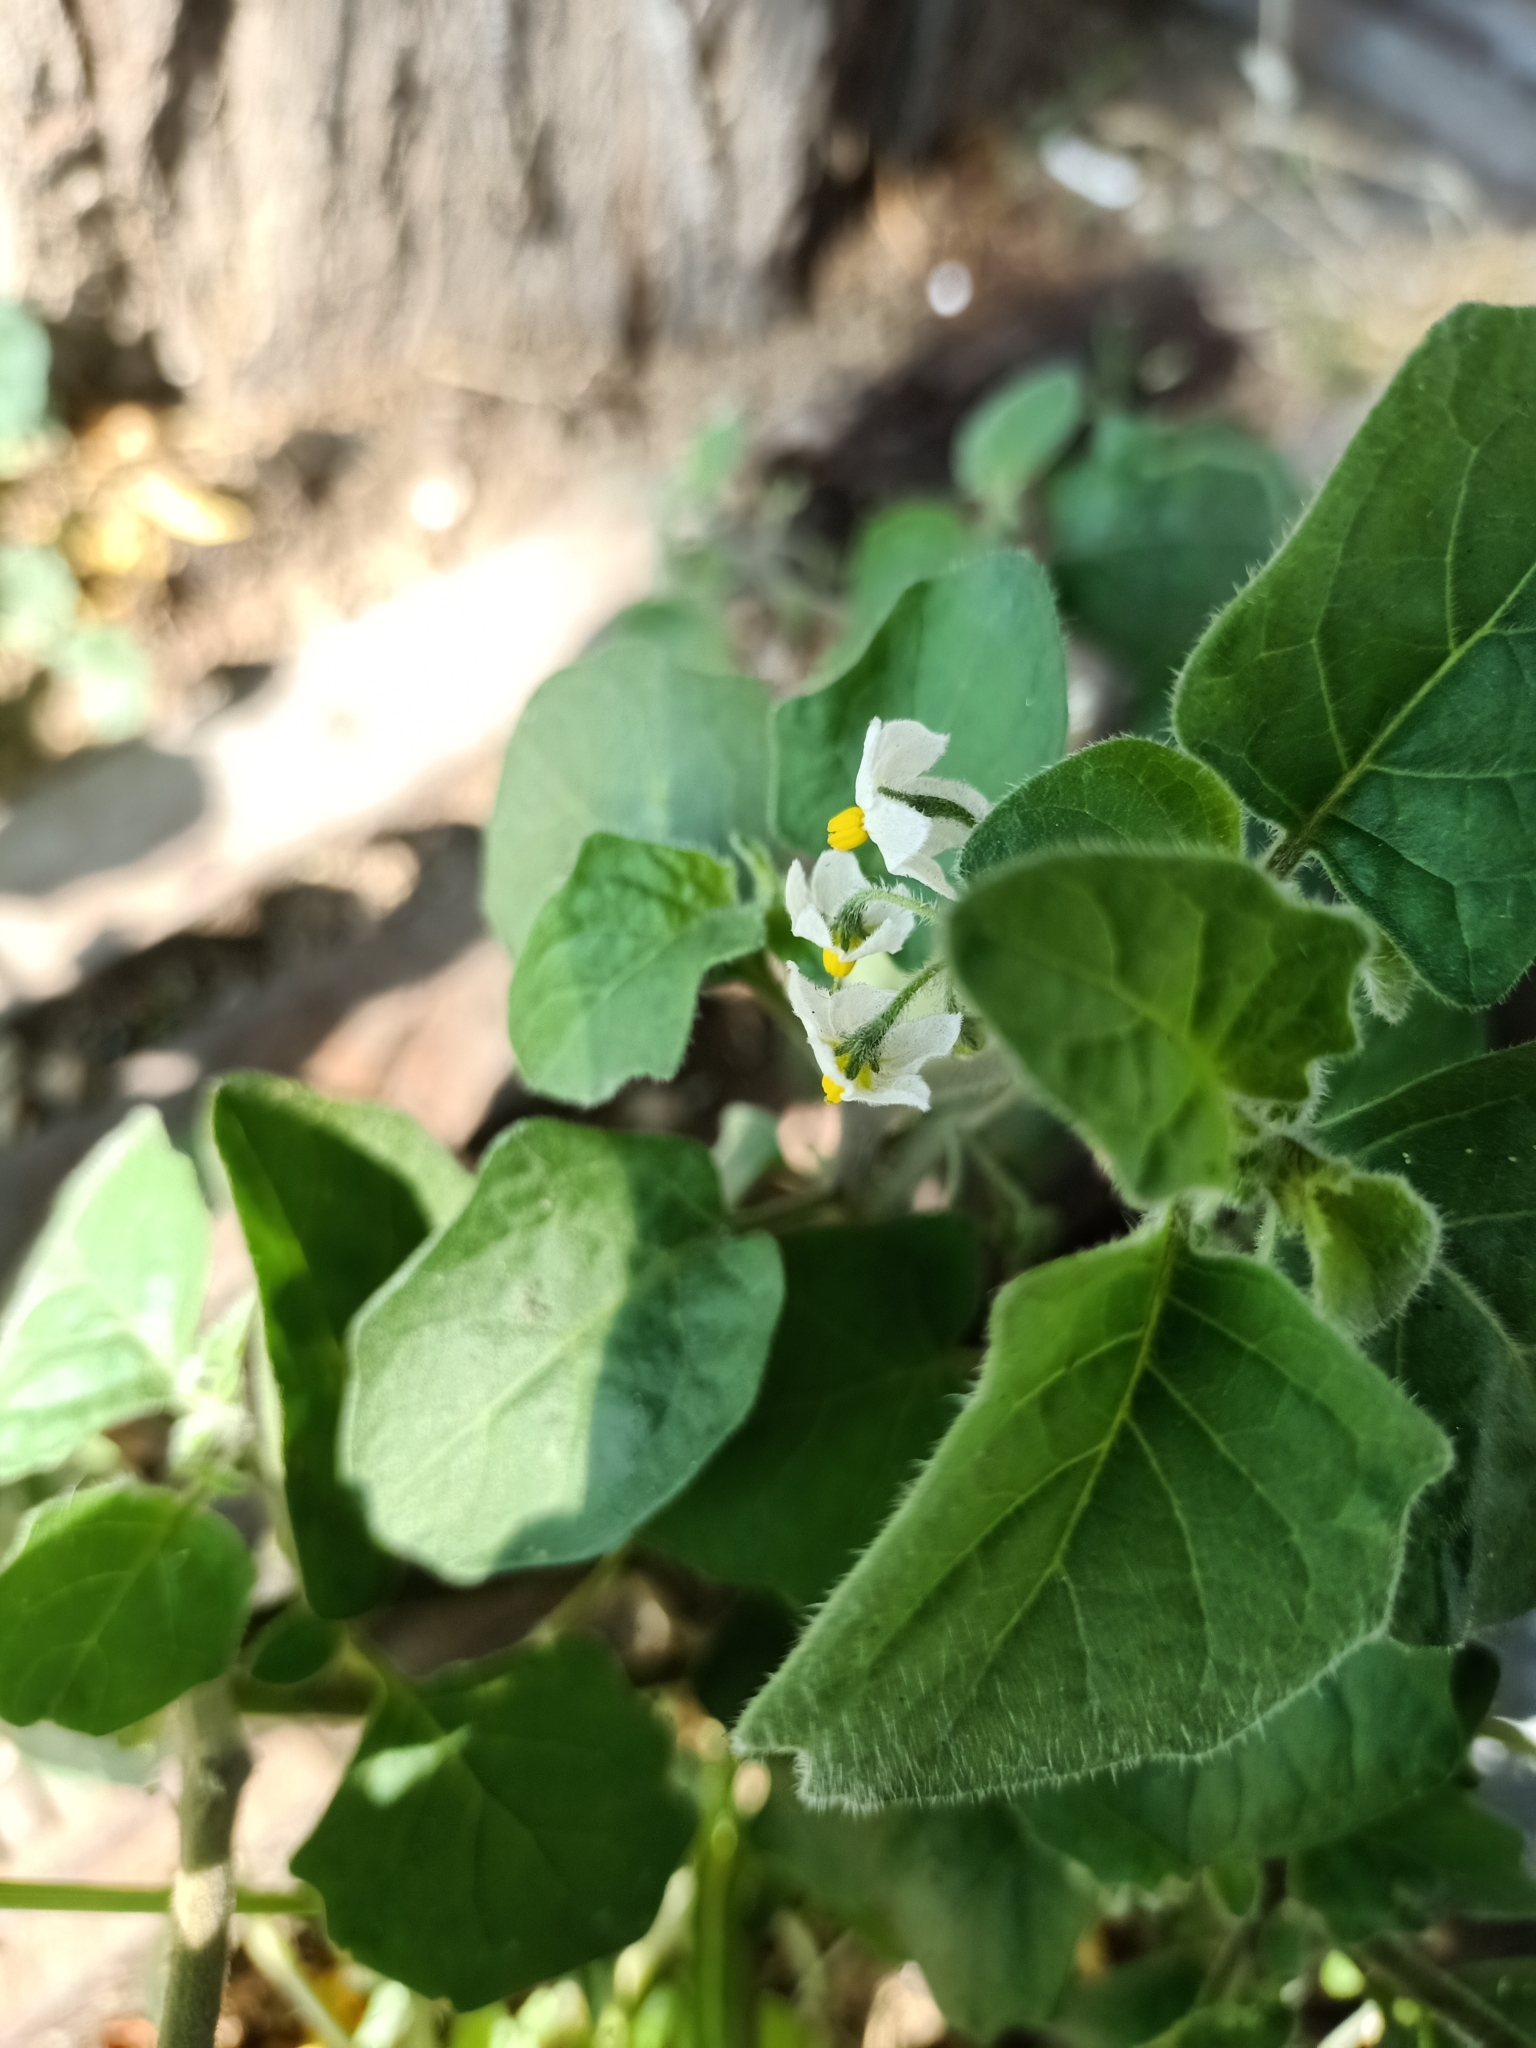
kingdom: Plantae
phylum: Tracheophyta
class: Magnoliopsida
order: Solanales
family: Solanaceae
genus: Solanum
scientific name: Solanum villosum
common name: Red nightshade
